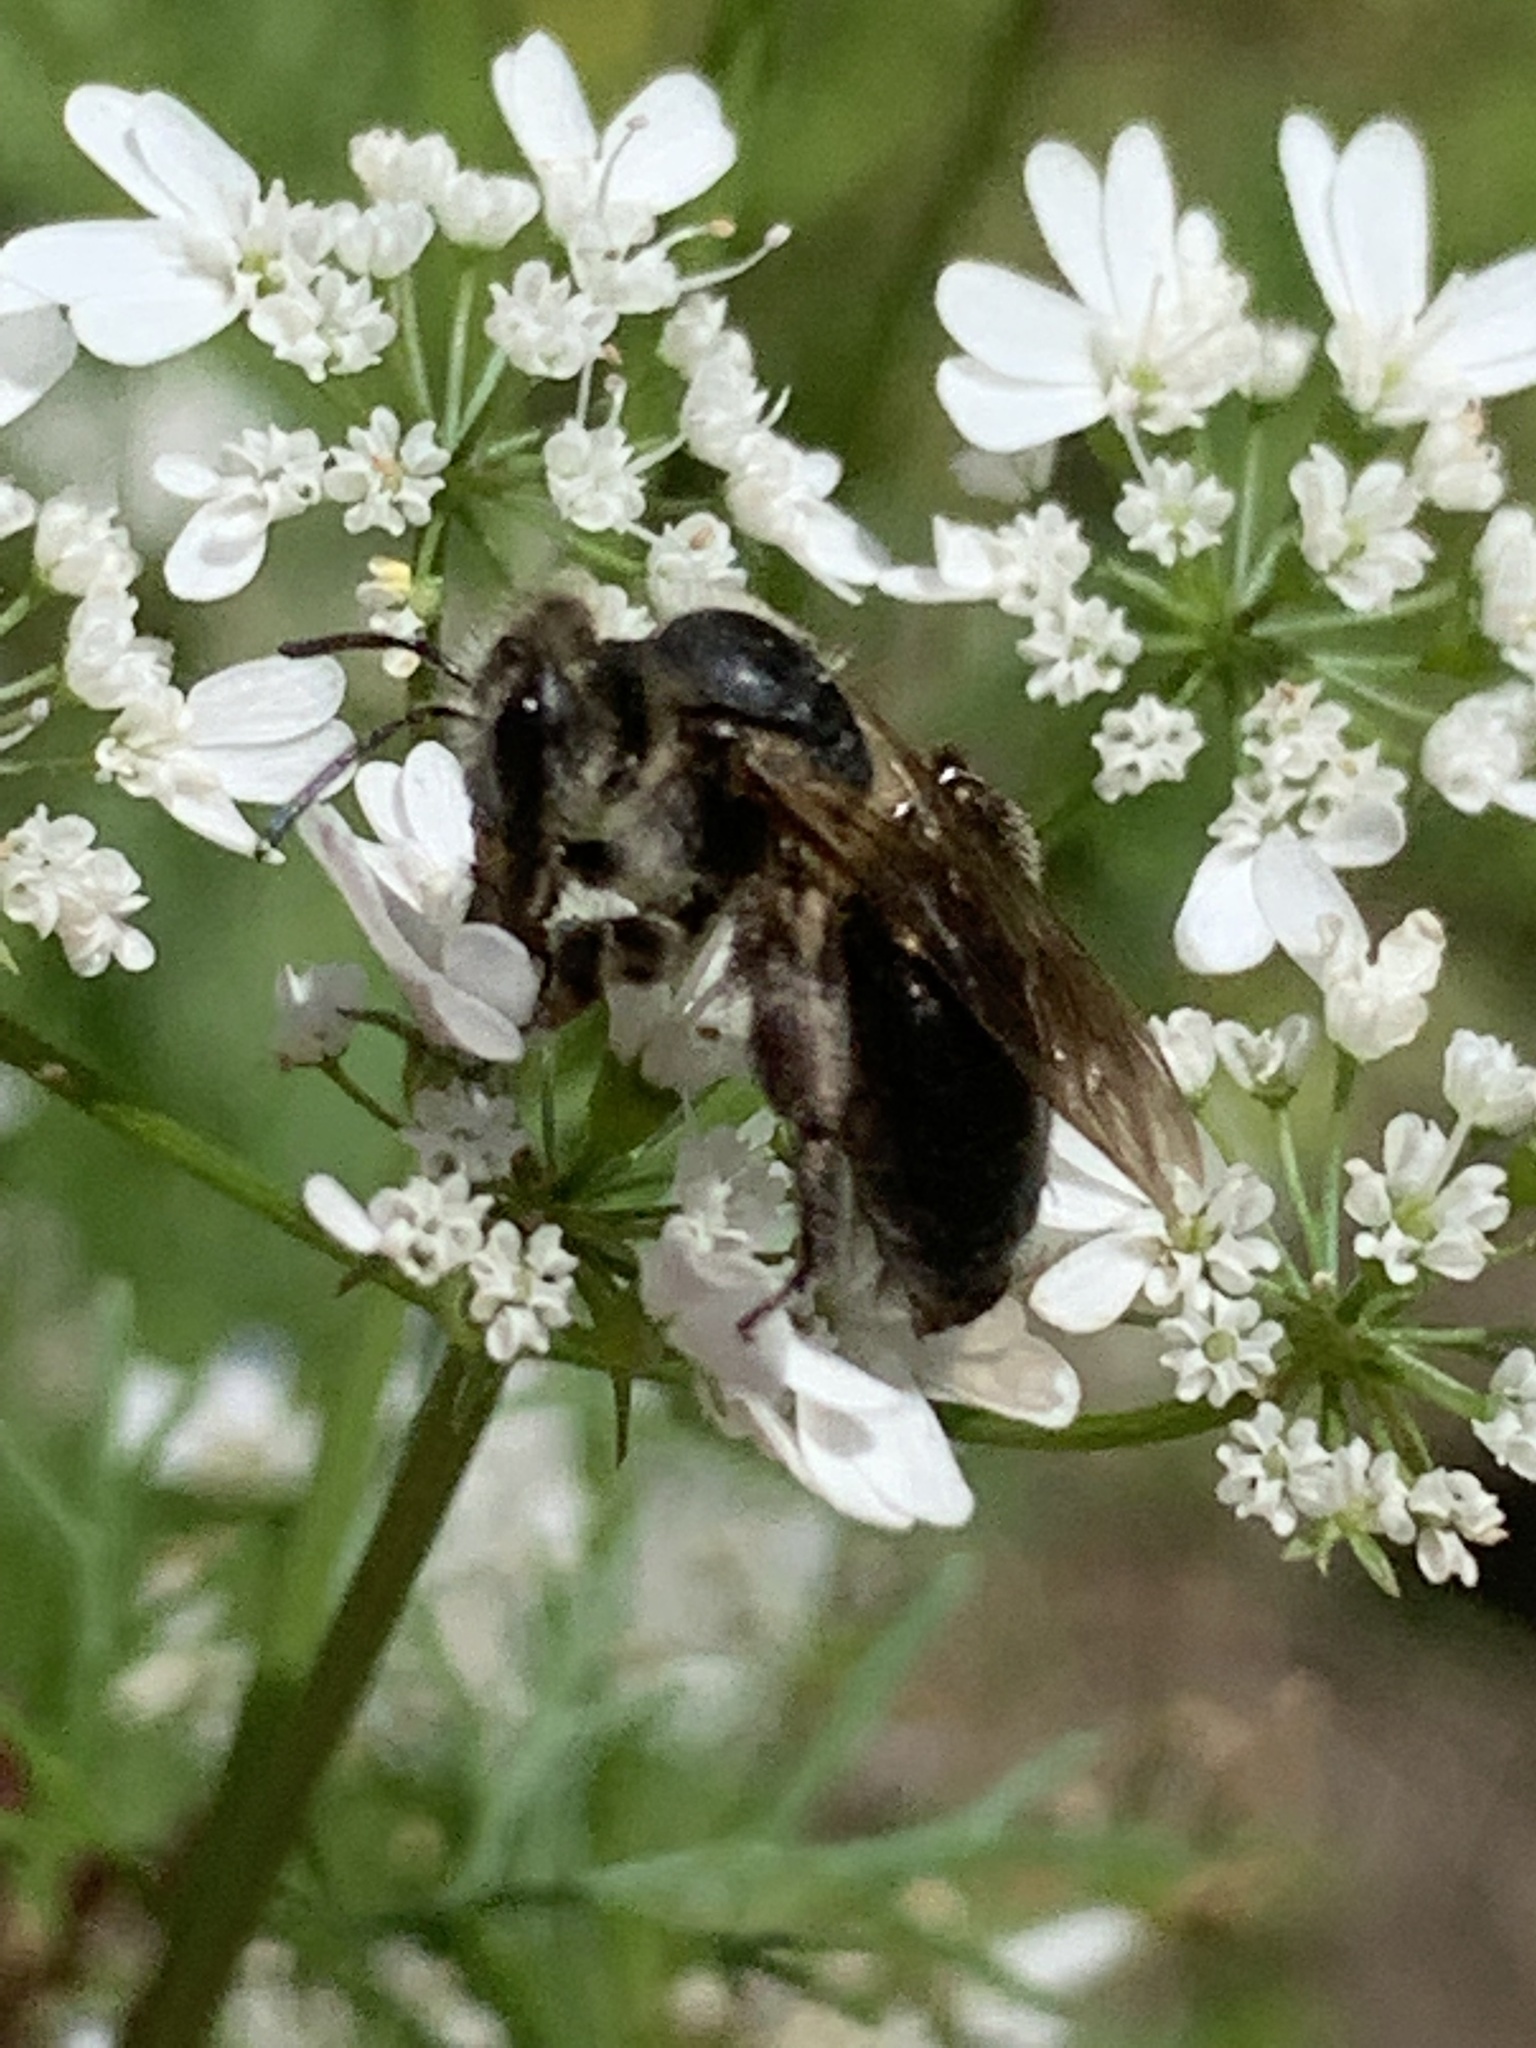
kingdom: Animalia
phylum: Arthropoda
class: Insecta
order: Hymenoptera
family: Andrenidae
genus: Andrena
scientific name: Andrena
